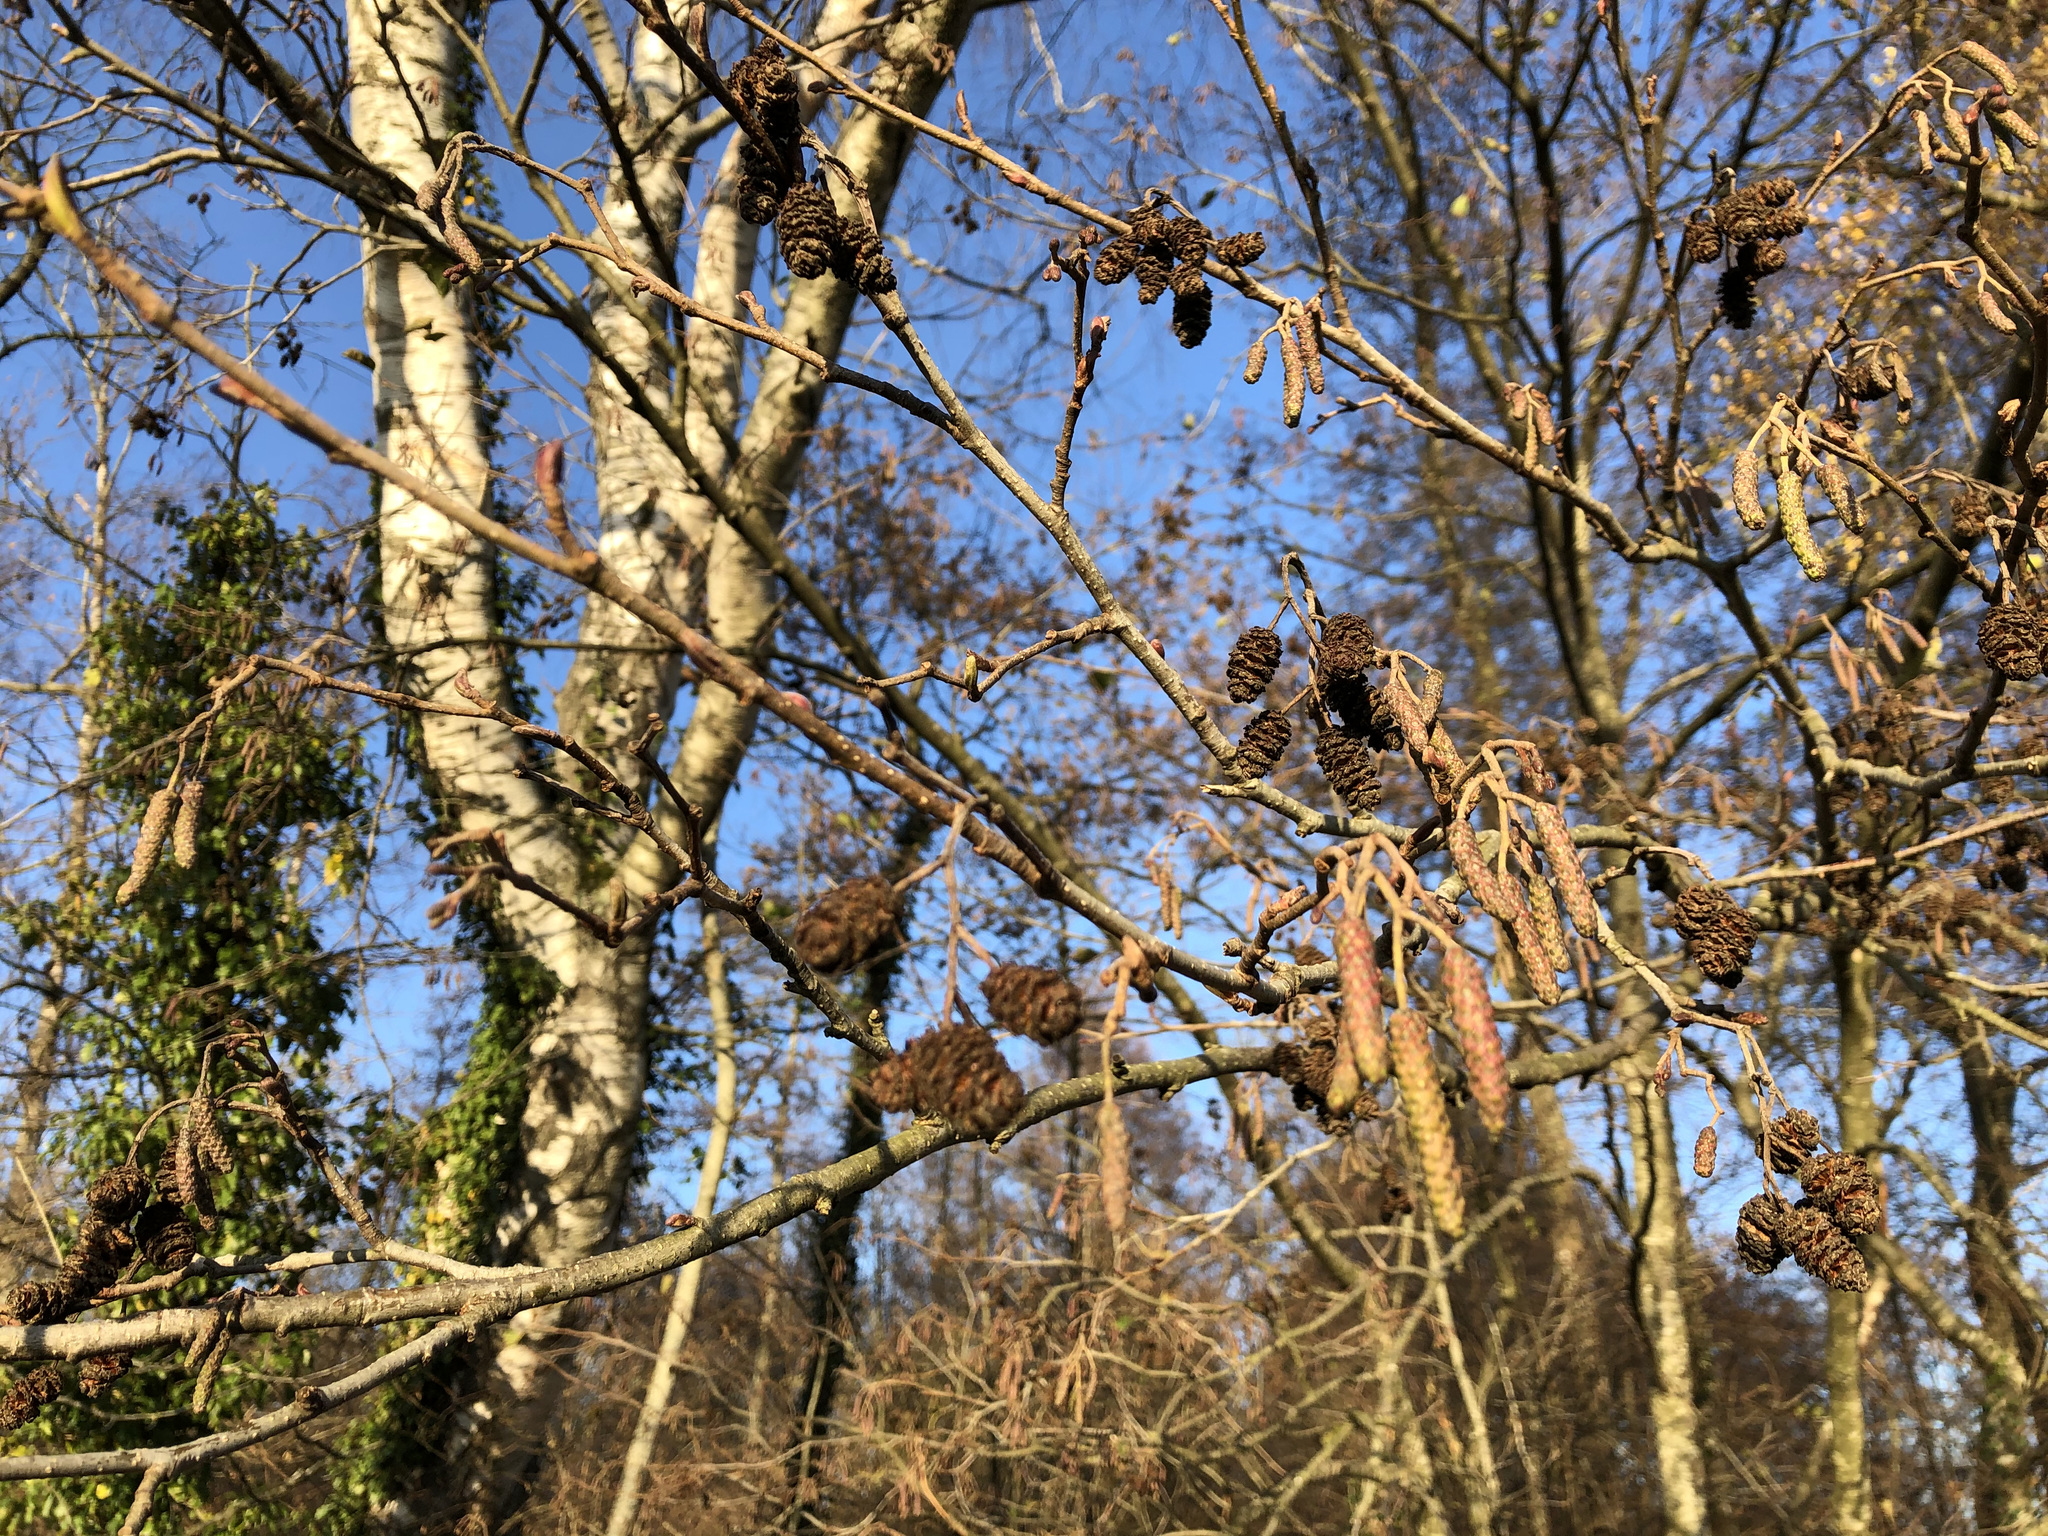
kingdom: Plantae
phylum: Tracheophyta
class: Magnoliopsida
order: Fagales
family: Betulaceae
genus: Alnus
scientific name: Alnus glutinosa
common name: Black alder
